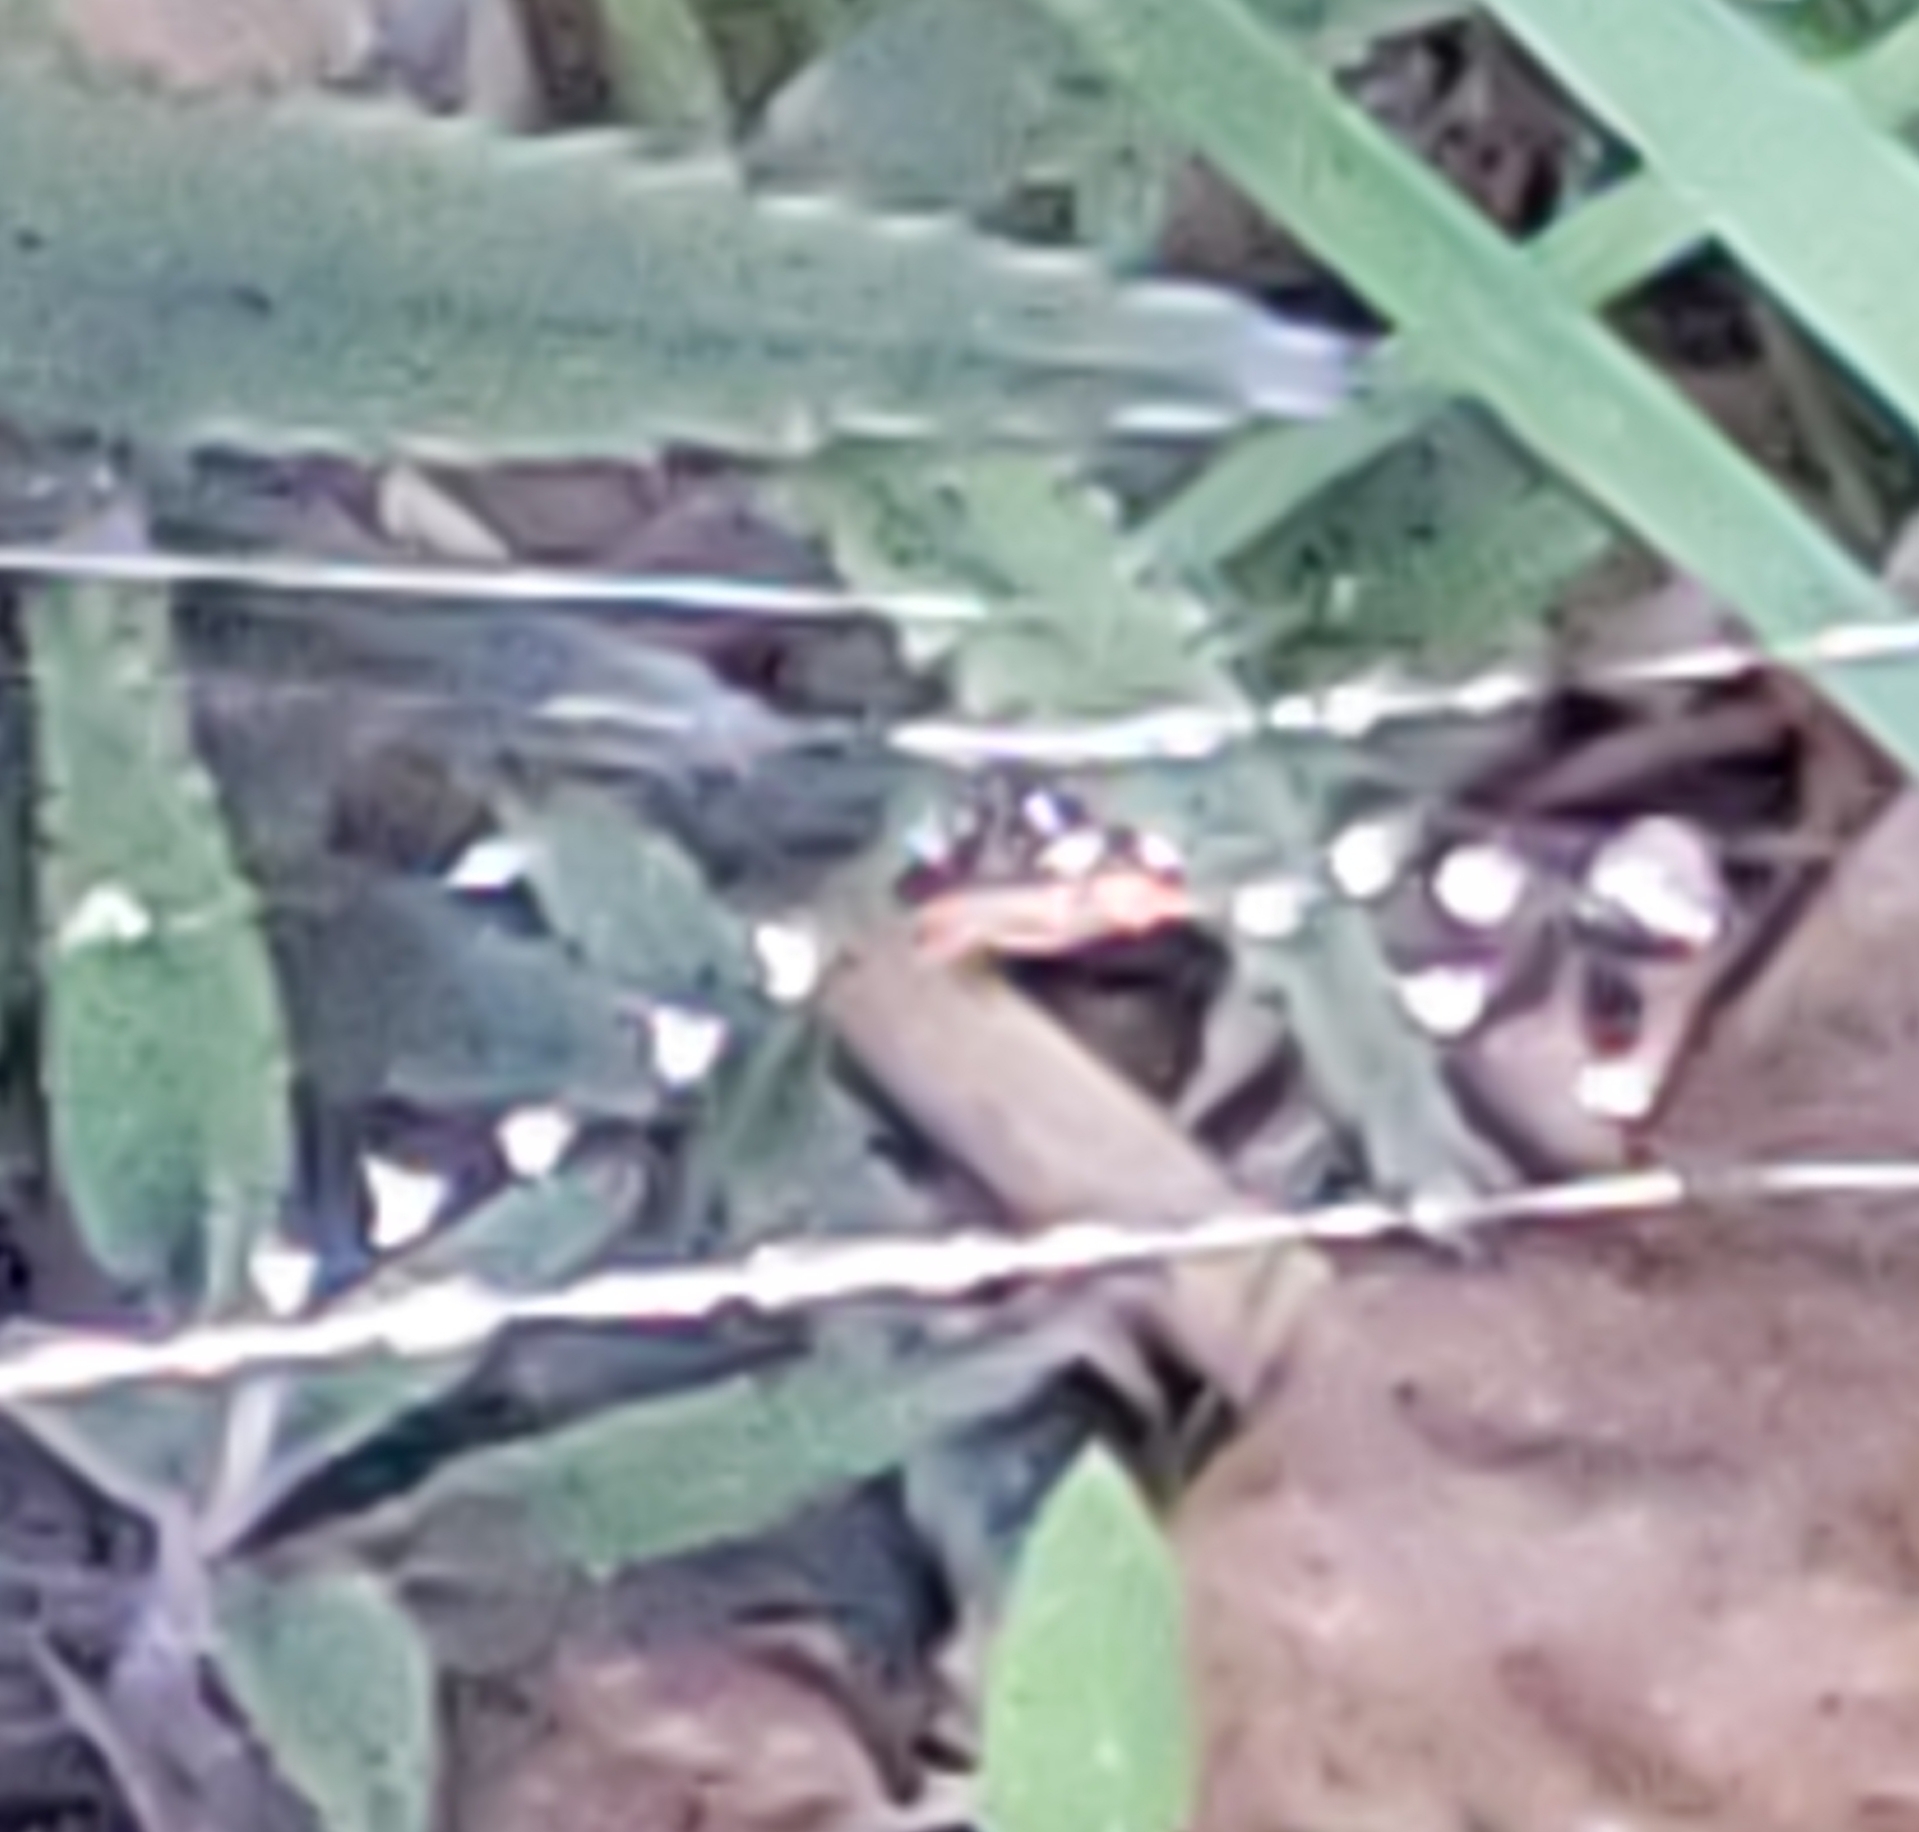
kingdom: Animalia
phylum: Arthropoda
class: Arachnida
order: Araneae
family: Araneidae
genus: Gasteracantha
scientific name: Gasteracantha cancriformis
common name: Orb weavers
